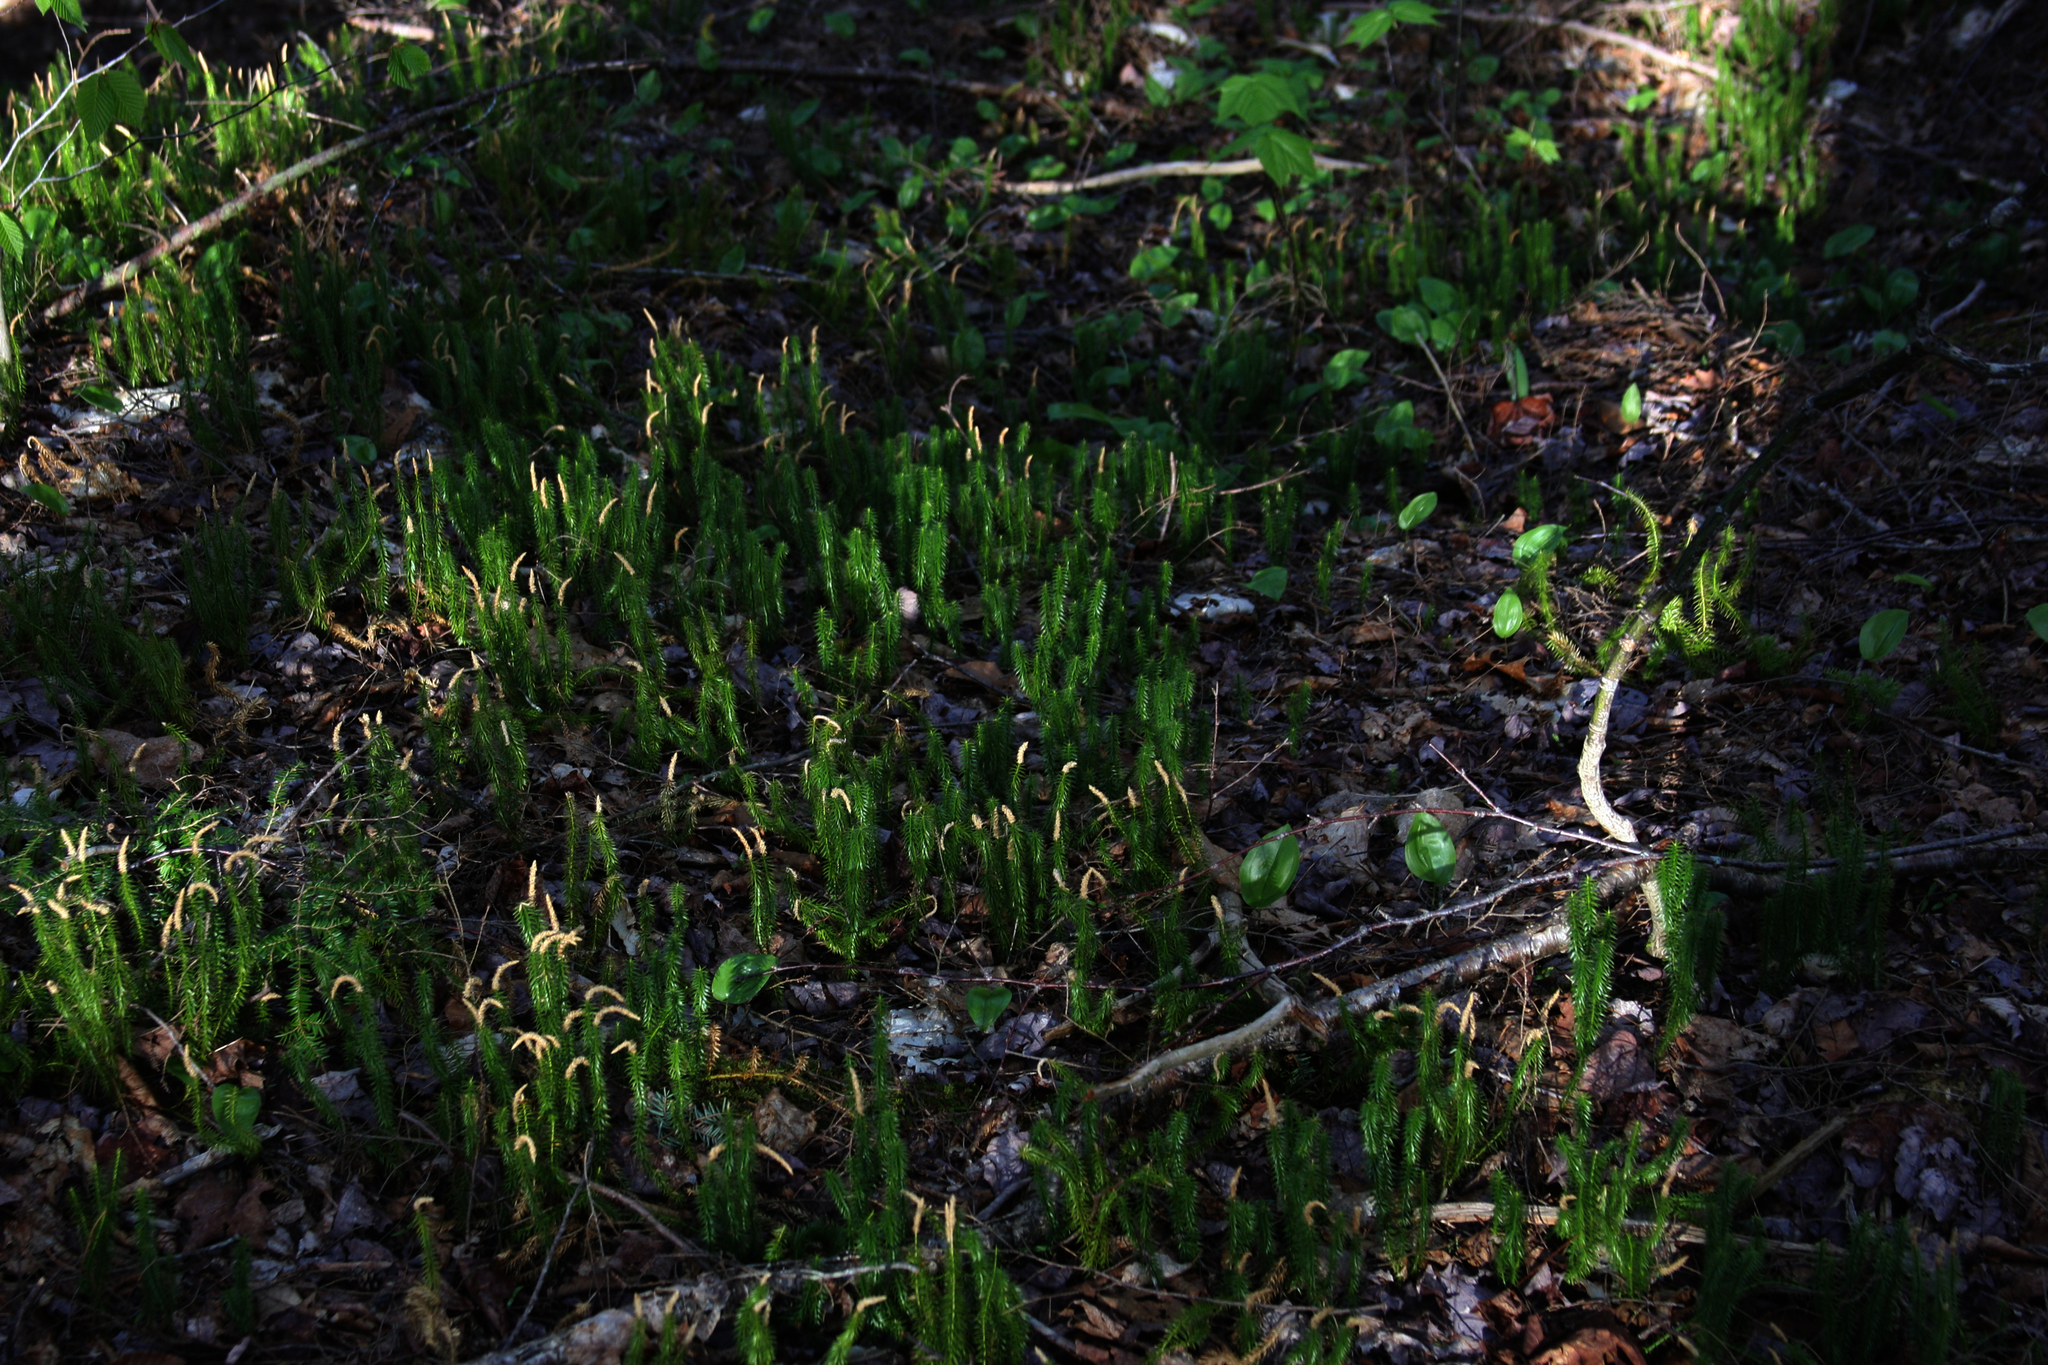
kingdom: Plantae
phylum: Tracheophyta
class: Lycopodiopsida
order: Lycopodiales
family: Lycopodiaceae
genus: Spinulum
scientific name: Spinulum annotinum
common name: Interrupted club-moss
